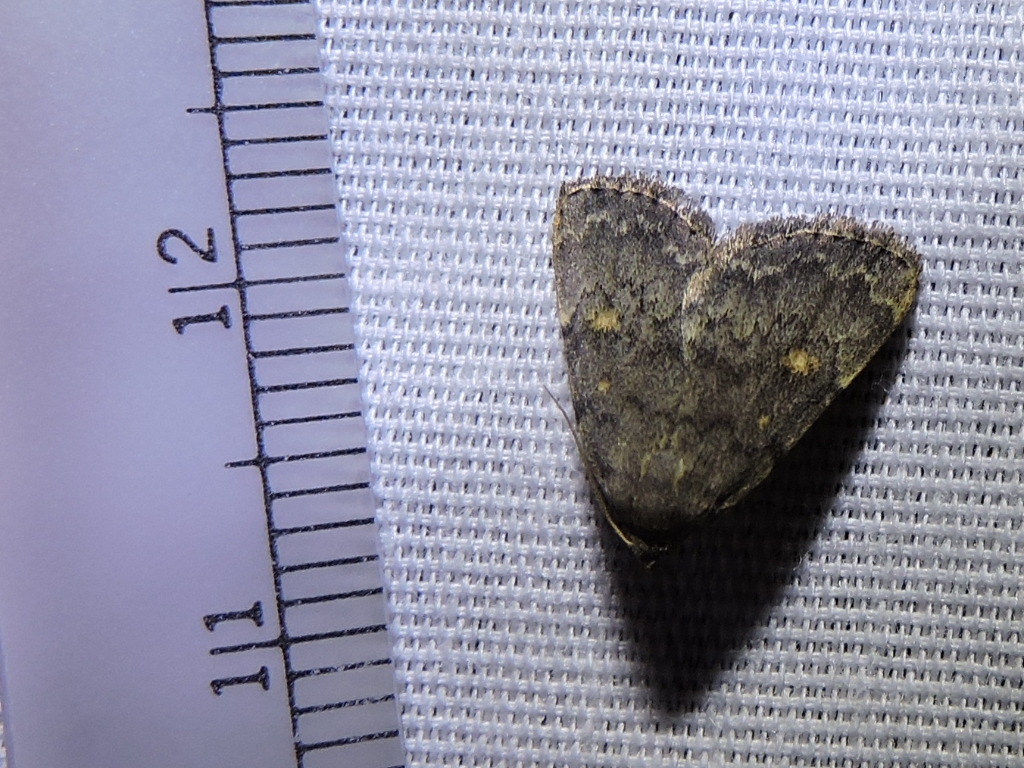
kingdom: Animalia
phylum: Arthropoda
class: Insecta
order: Lepidoptera
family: Erebidae
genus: Idia
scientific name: Idia aemula
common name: Common idia moth
